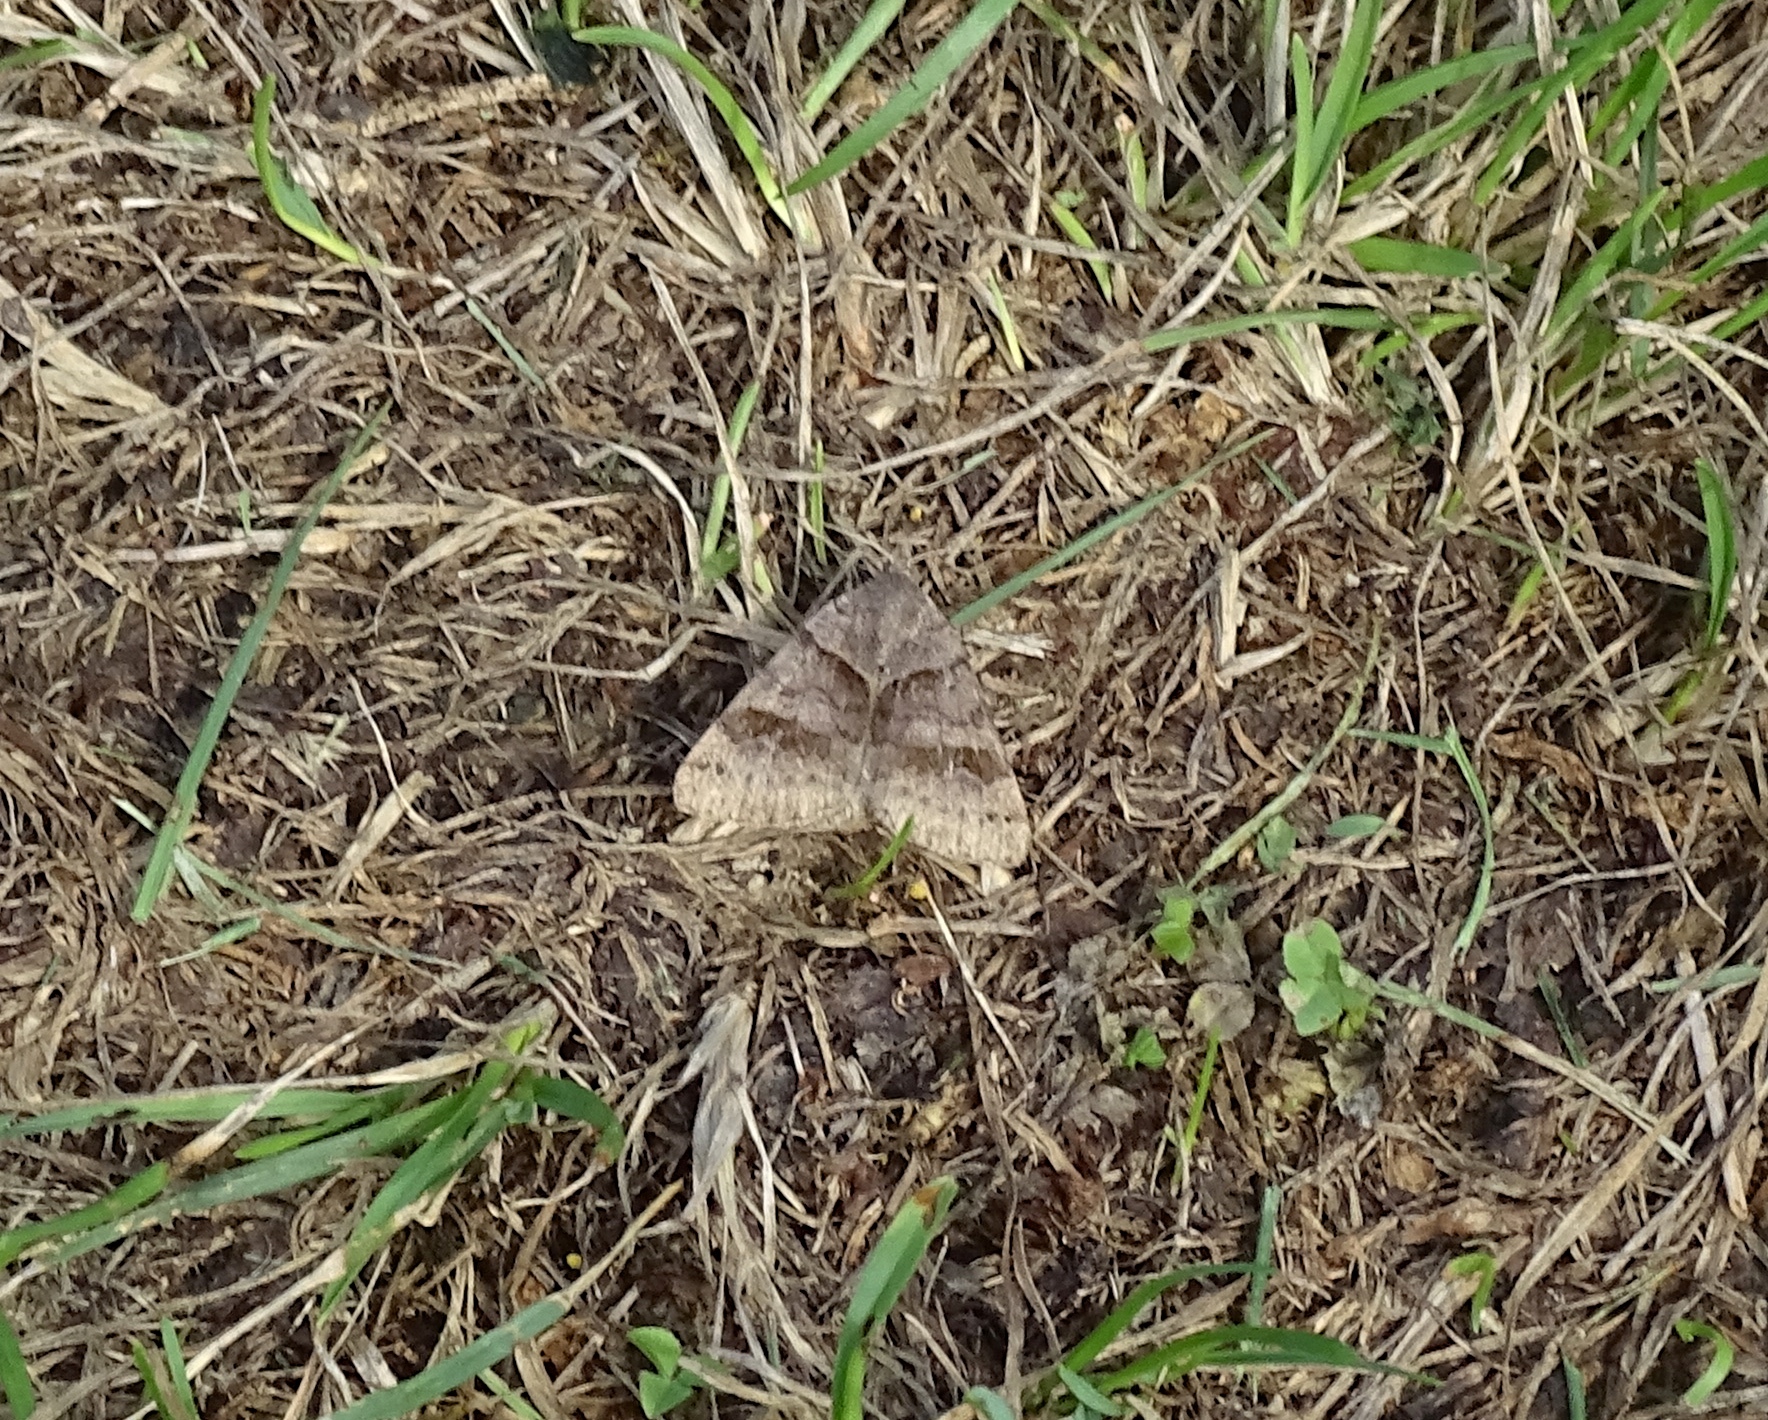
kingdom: Animalia
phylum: Arthropoda
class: Insecta
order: Lepidoptera
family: Erebidae
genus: Caenurgina
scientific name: Caenurgina crassiuscula
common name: Double-barred
